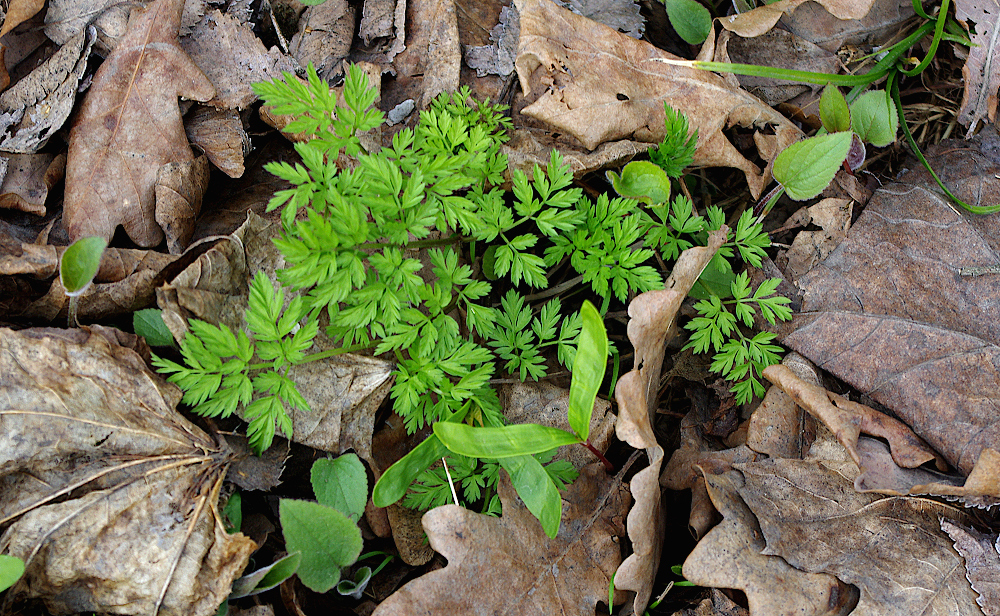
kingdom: Plantae
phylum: Tracheophyta
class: Magnoliopsida
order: Apiales
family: Apiaceae
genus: Anthriscus
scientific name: Anthriscus sylvestris
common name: Cow parsley
